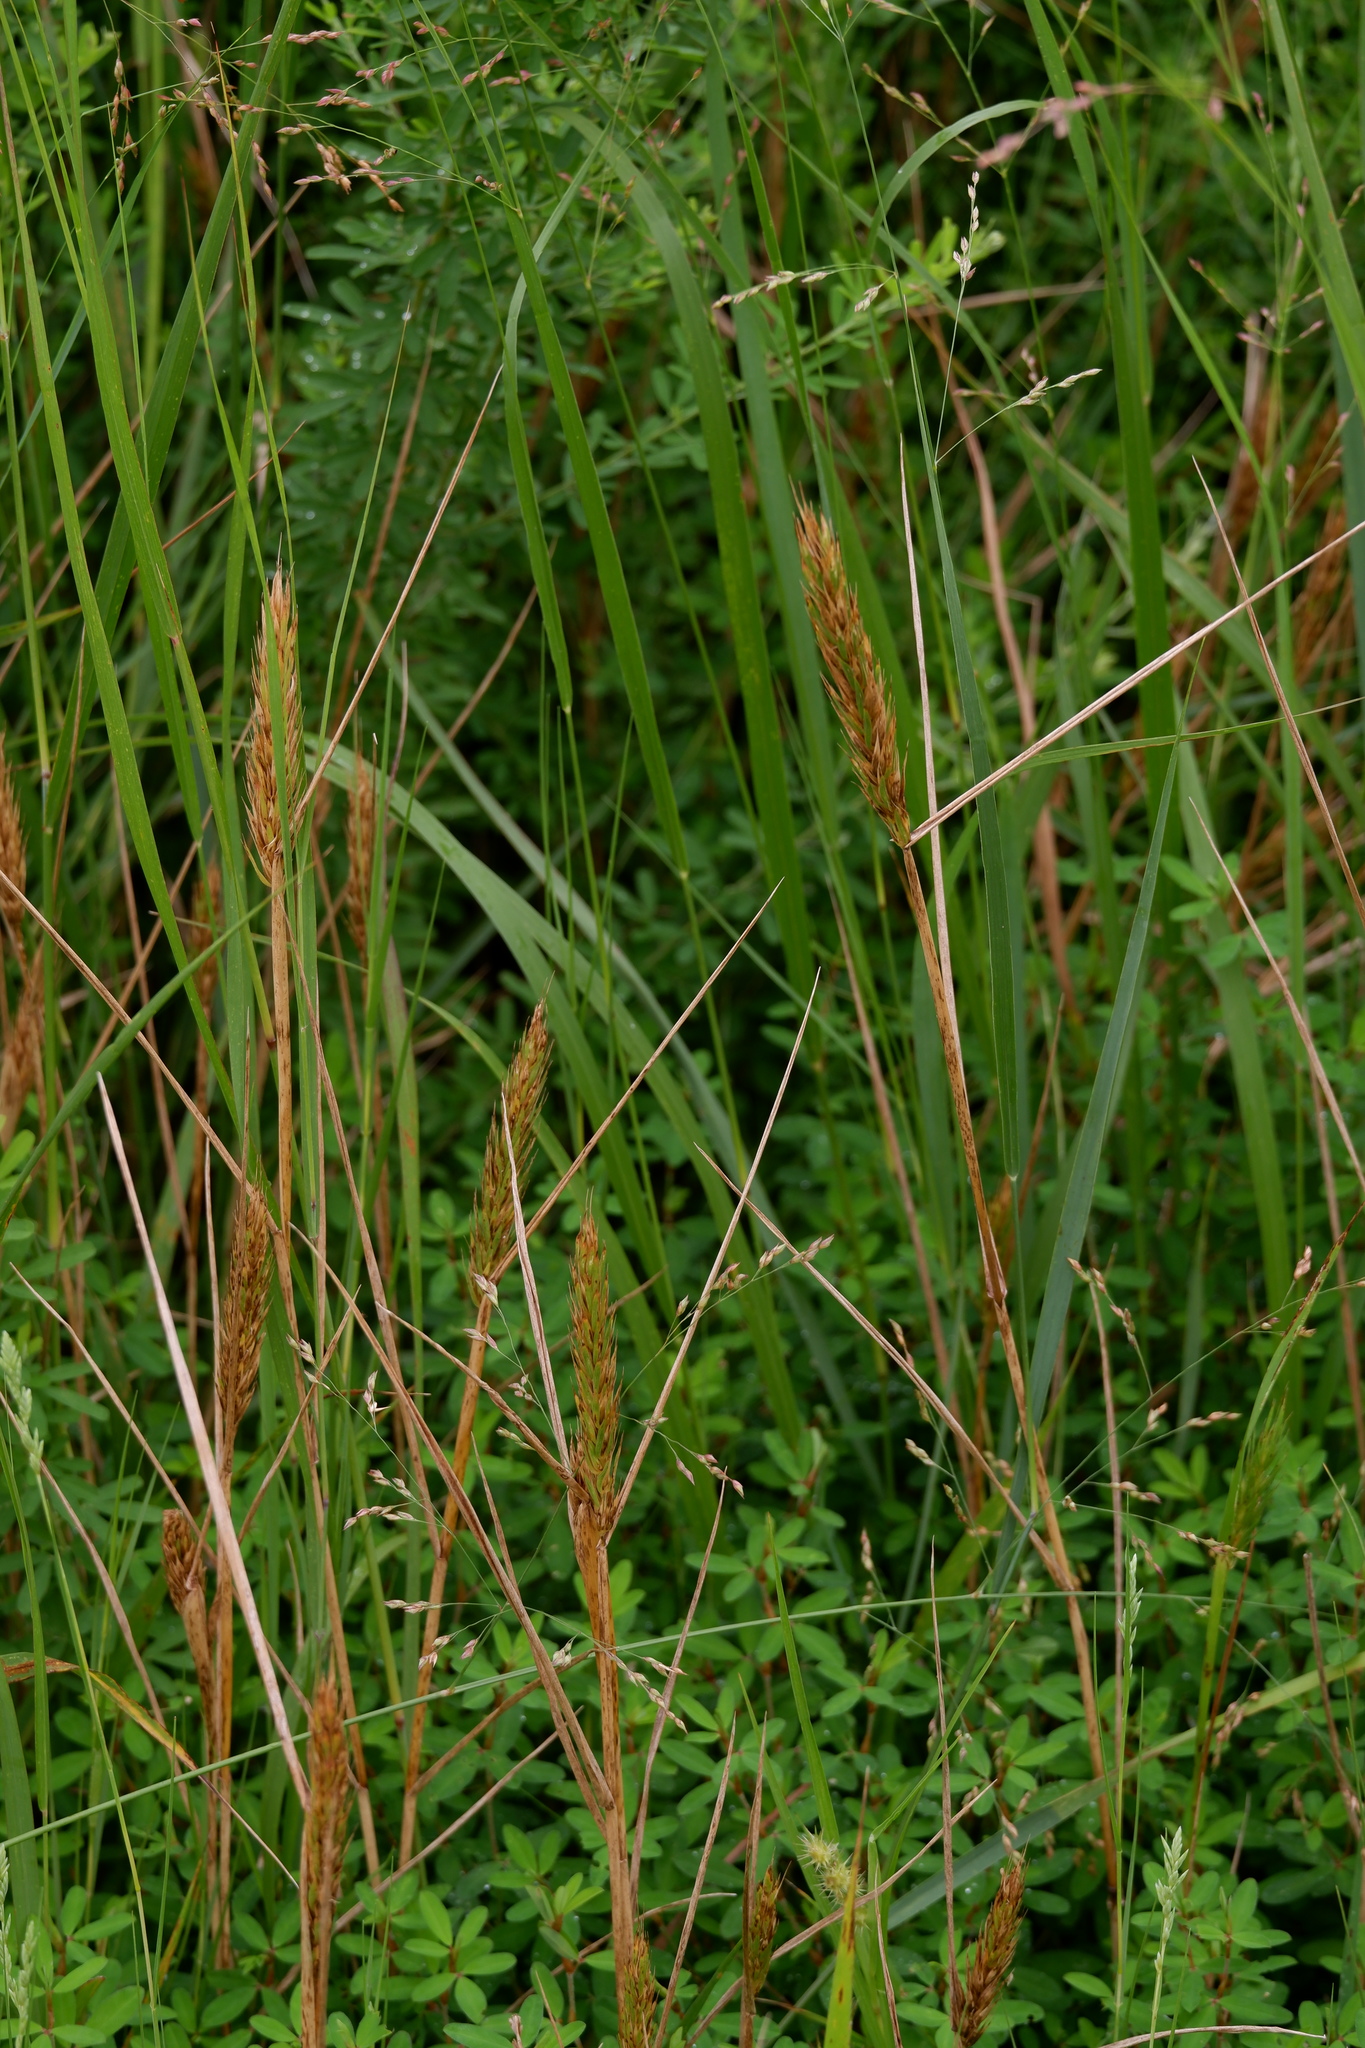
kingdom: Plantae
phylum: Tracheophyta
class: Liliopsida
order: Poales
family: Poaceae
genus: Elymus
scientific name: Elymus virginicus
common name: Common eastern wildrye
